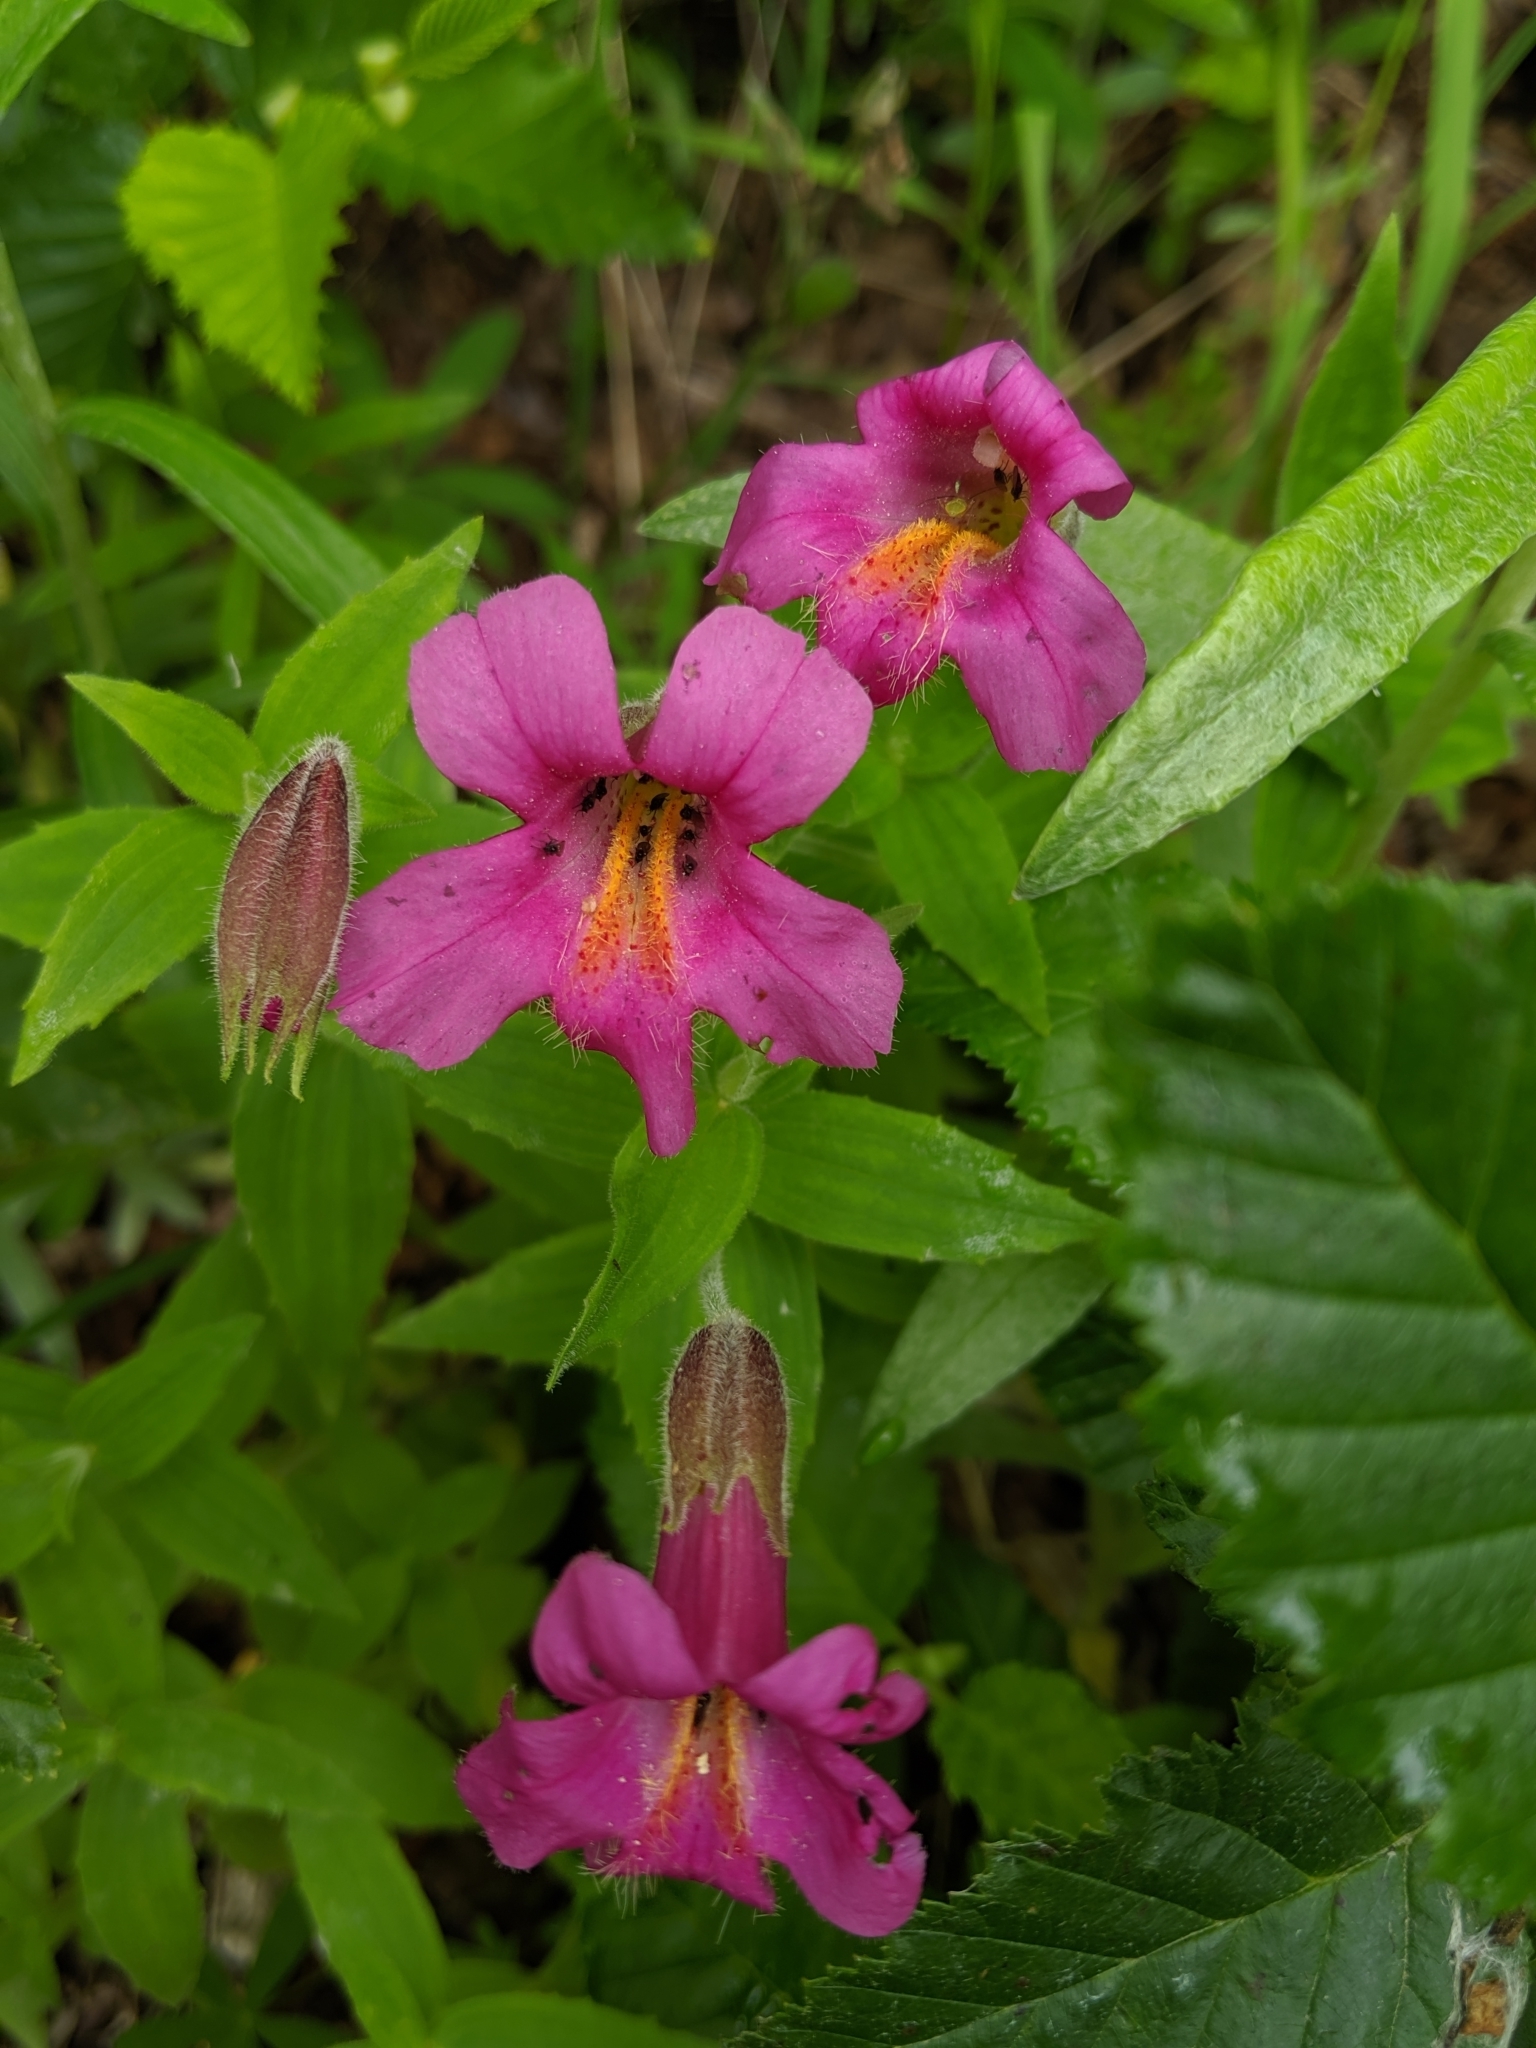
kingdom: Plantae
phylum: Tracheophyta
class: Magnoliopsida
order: Lamiales
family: Phrymaceae
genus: Erythranthe
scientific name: Erythranthe lewisii
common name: Lewis's monkey-flower
